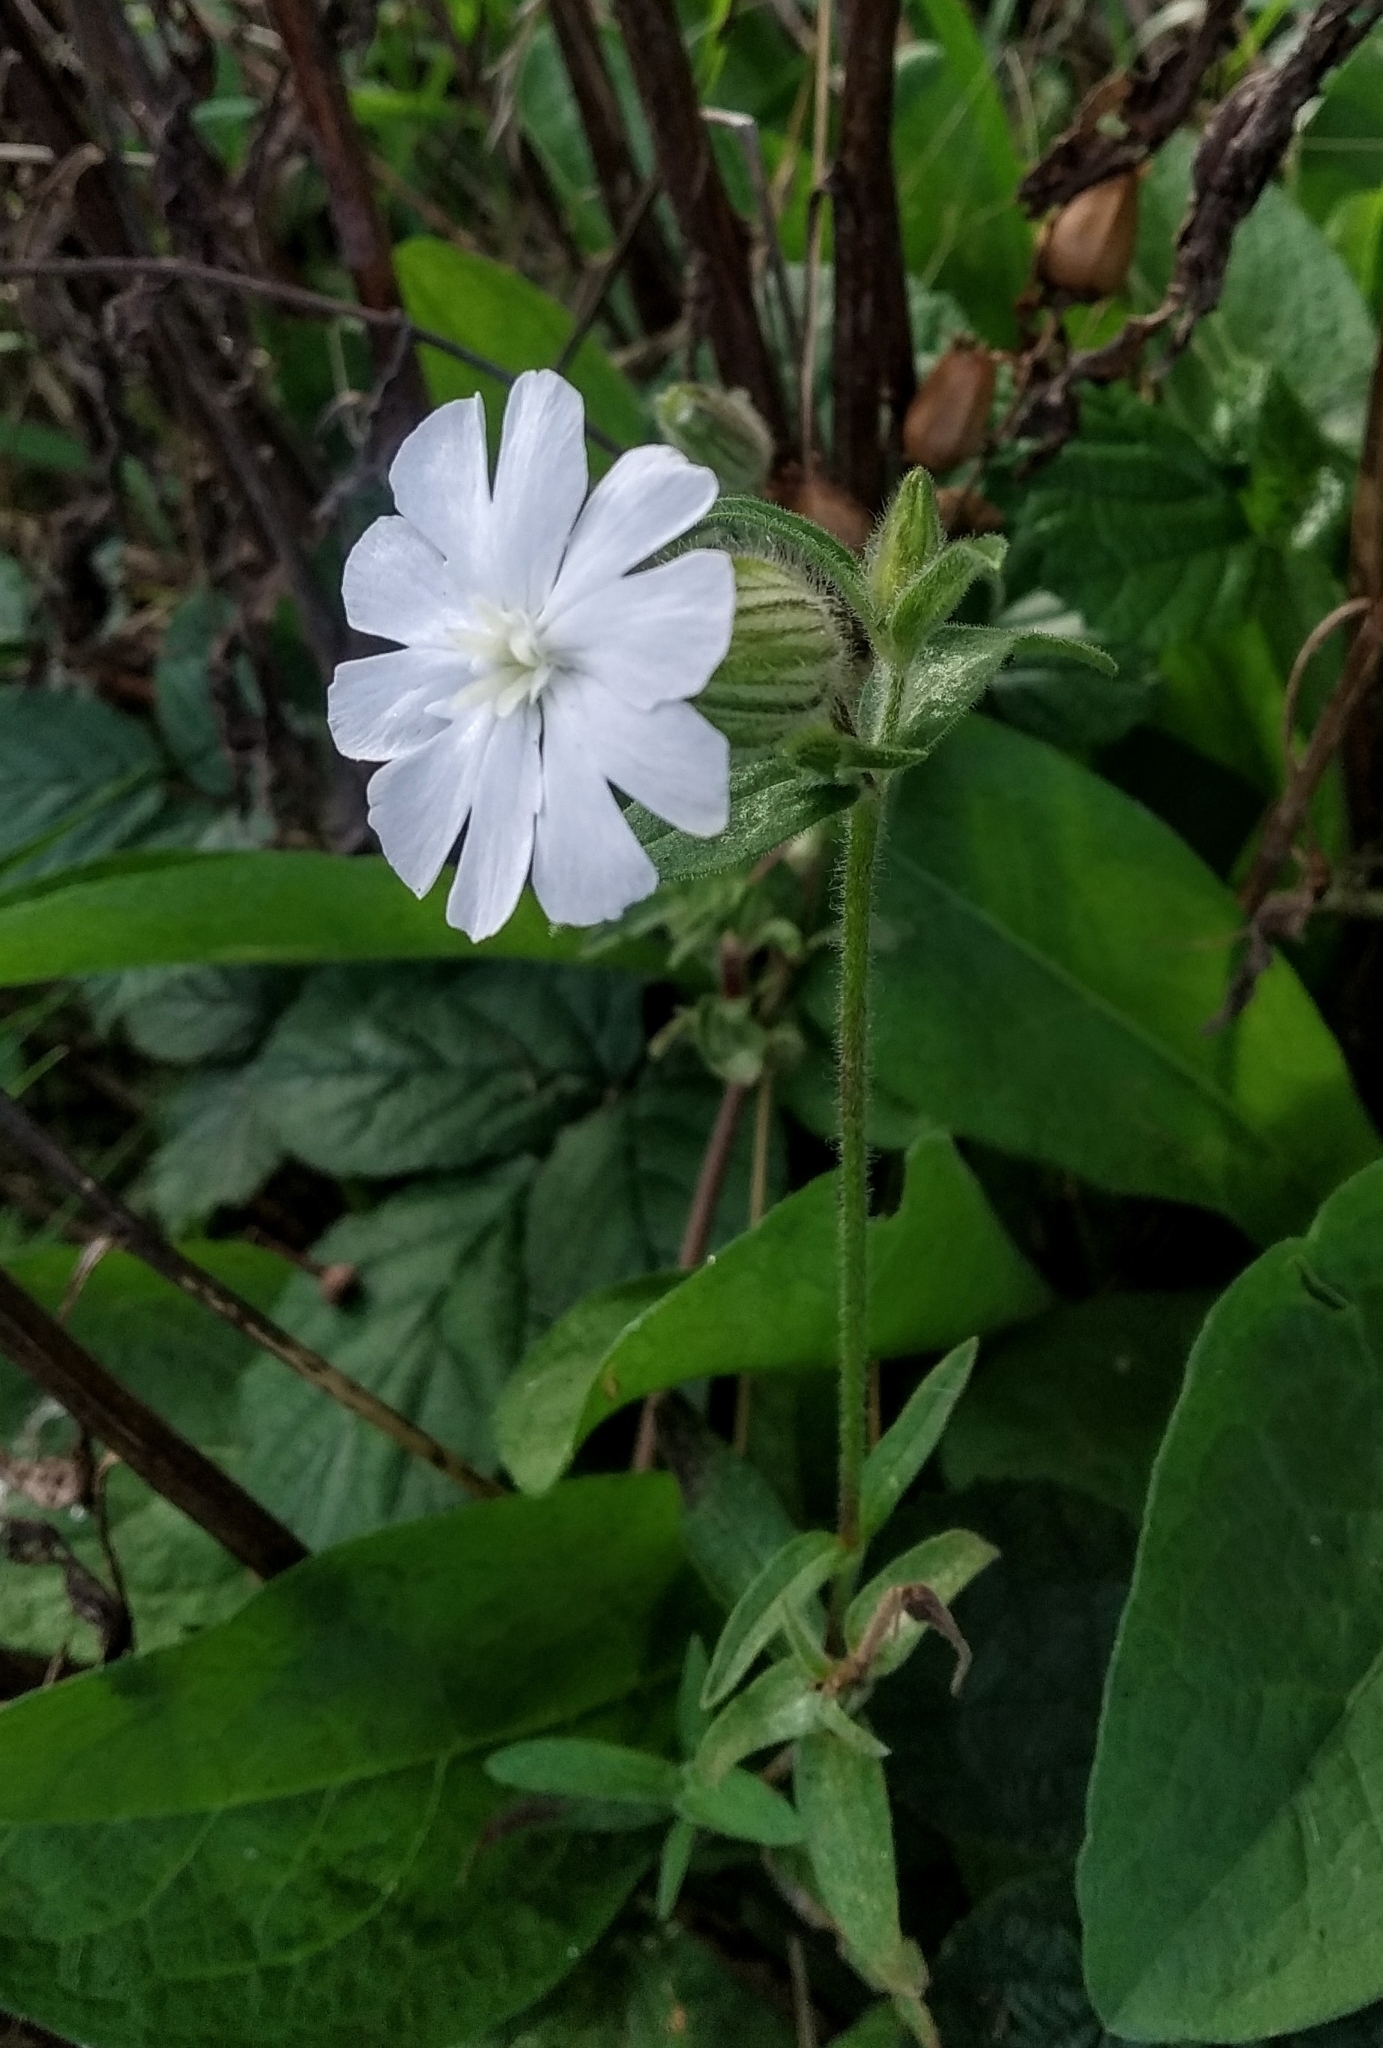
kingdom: Plantae
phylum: Tracheophyta
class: Magnoliopsida
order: Caryophyllales
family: Caryophyllaceae
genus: Silene
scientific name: Silene latifolia
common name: White campion
